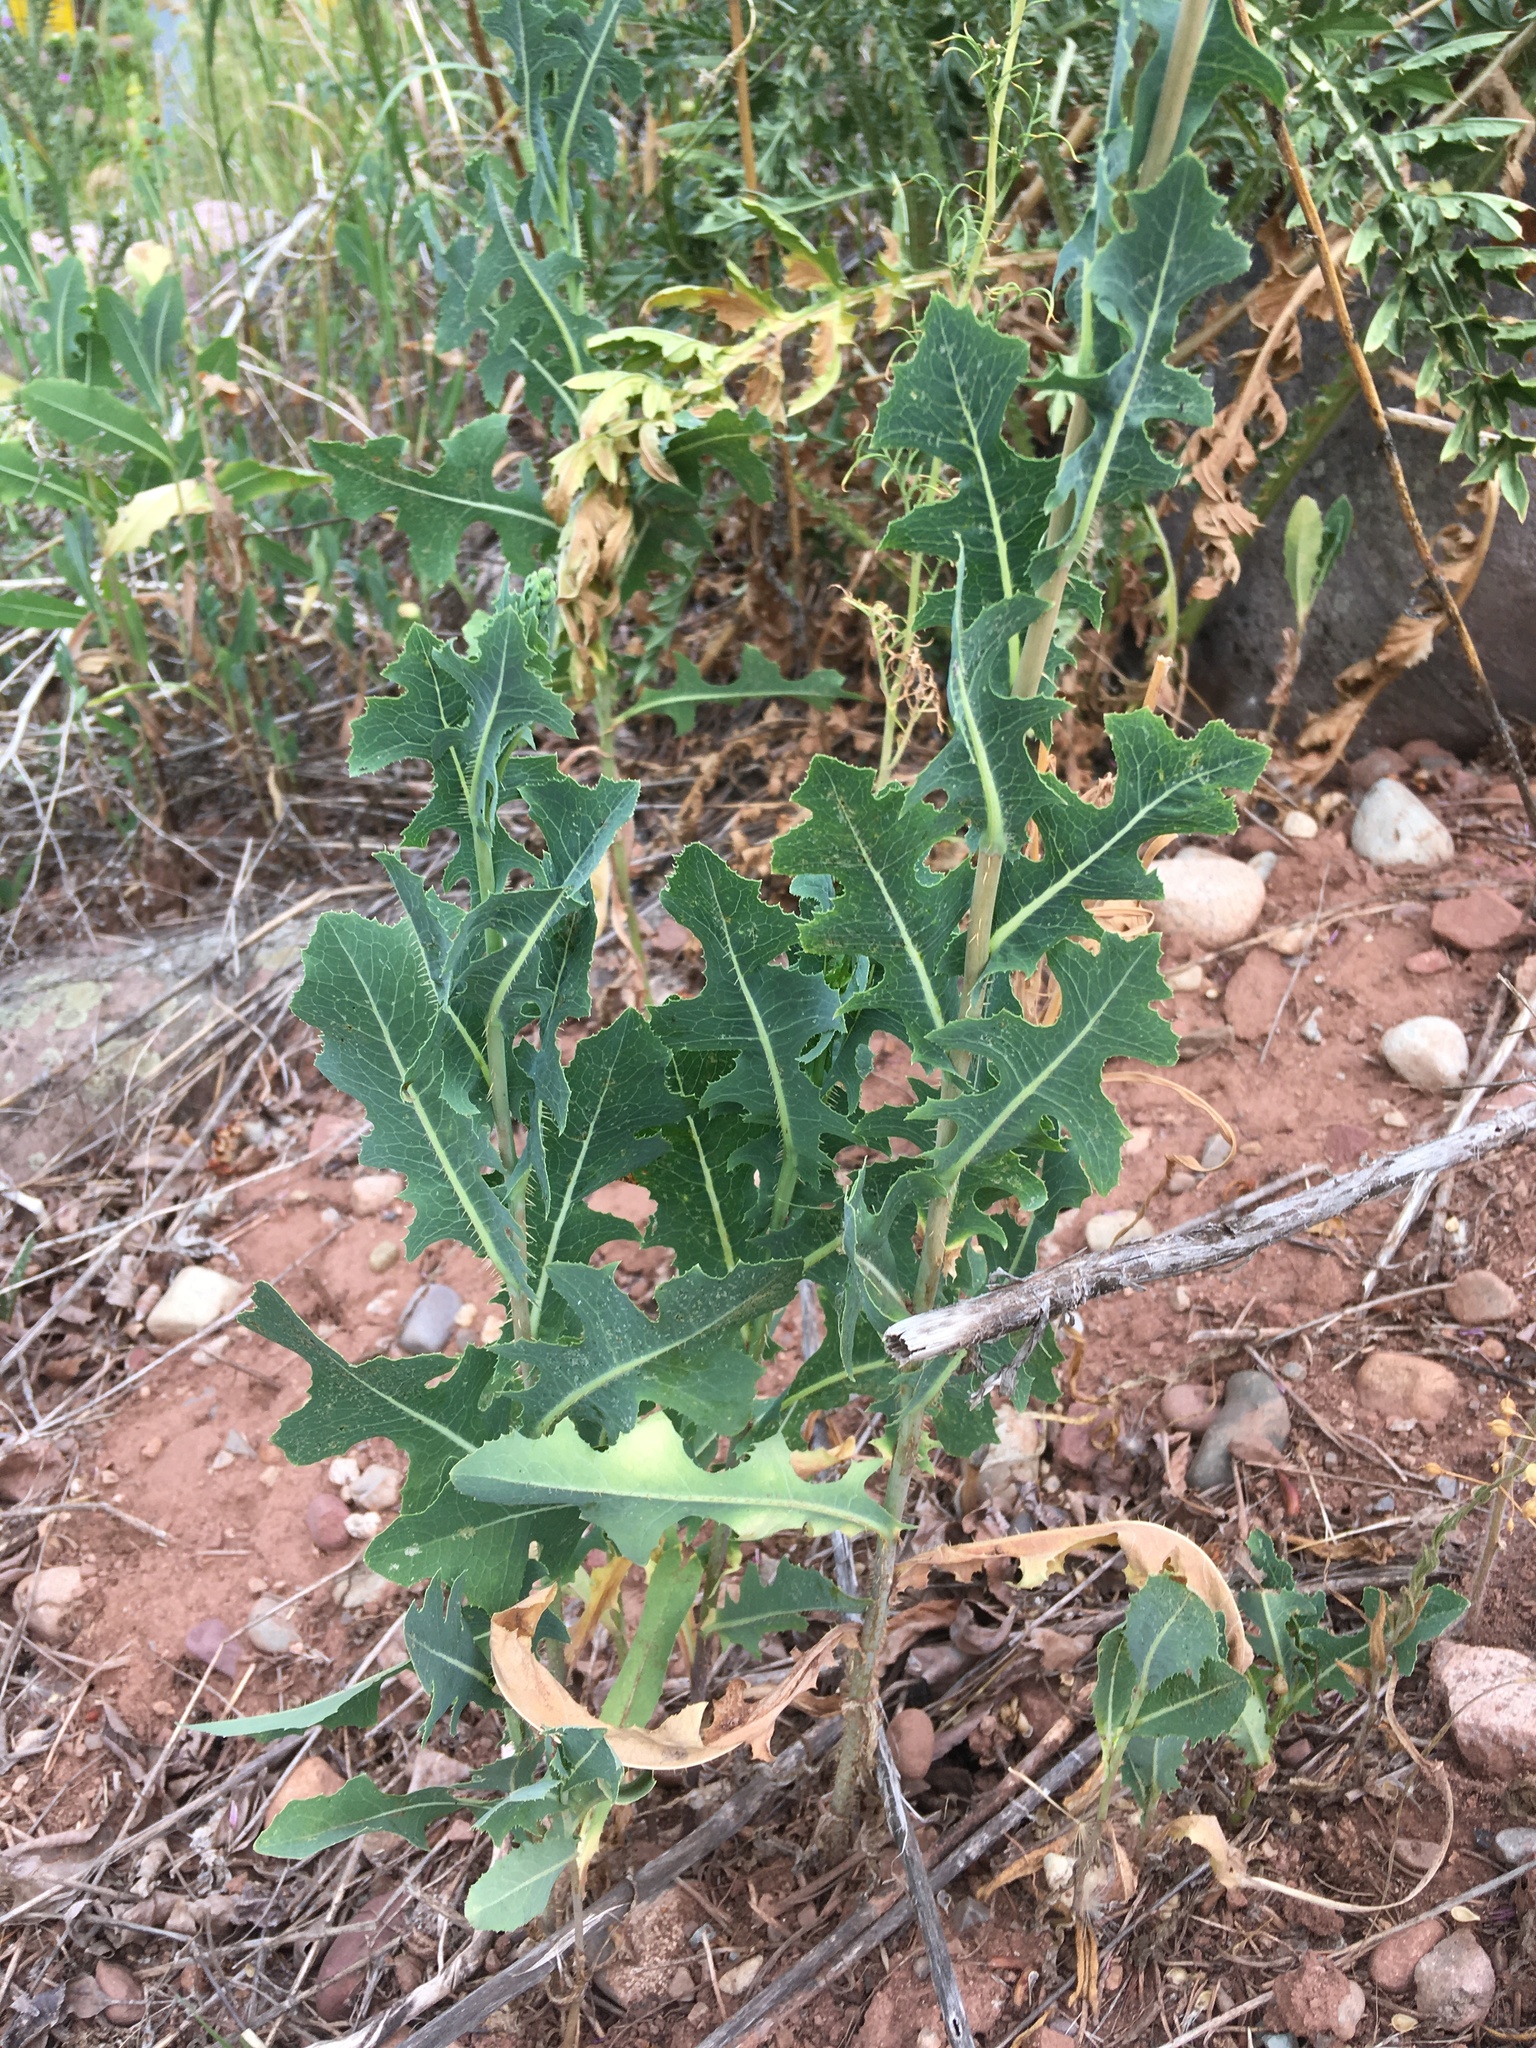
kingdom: Plantae
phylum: Tracheophyta
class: Magnoliopsida
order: Asterales
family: Asteraceae
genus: Lactuca
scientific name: Lactuca serriola
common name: Prickly lettuce
